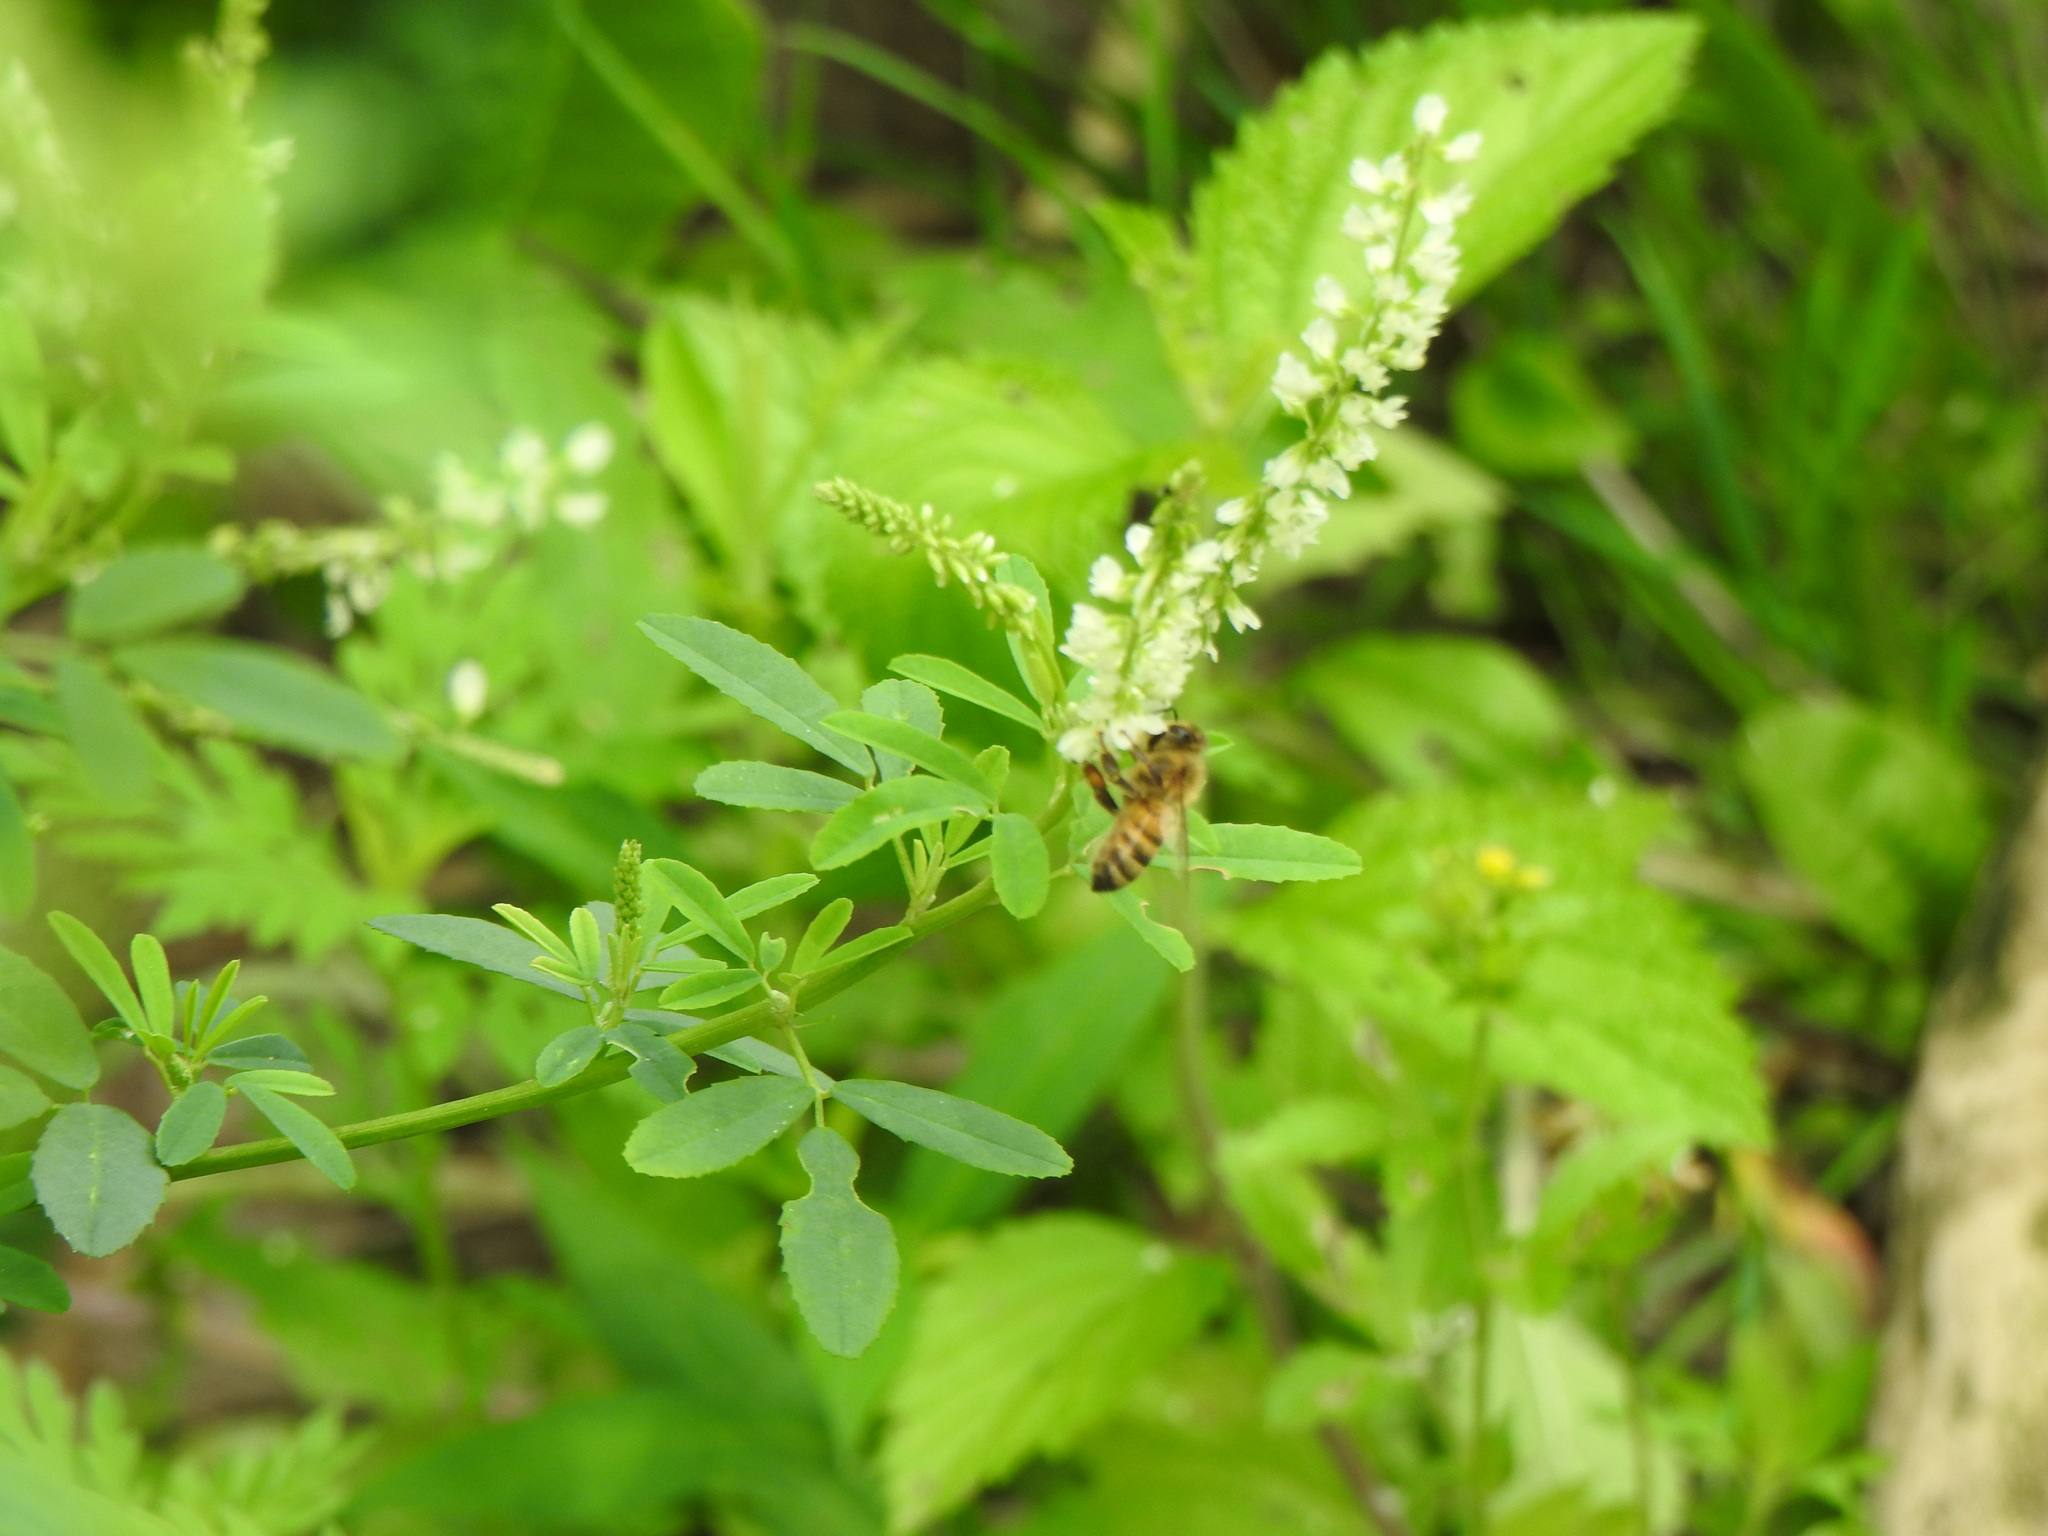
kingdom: Animalia
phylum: Arthropoda
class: Insecta
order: Hymenoptera
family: Apidae
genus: Apis
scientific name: Apis mellifera
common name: Honey bee
